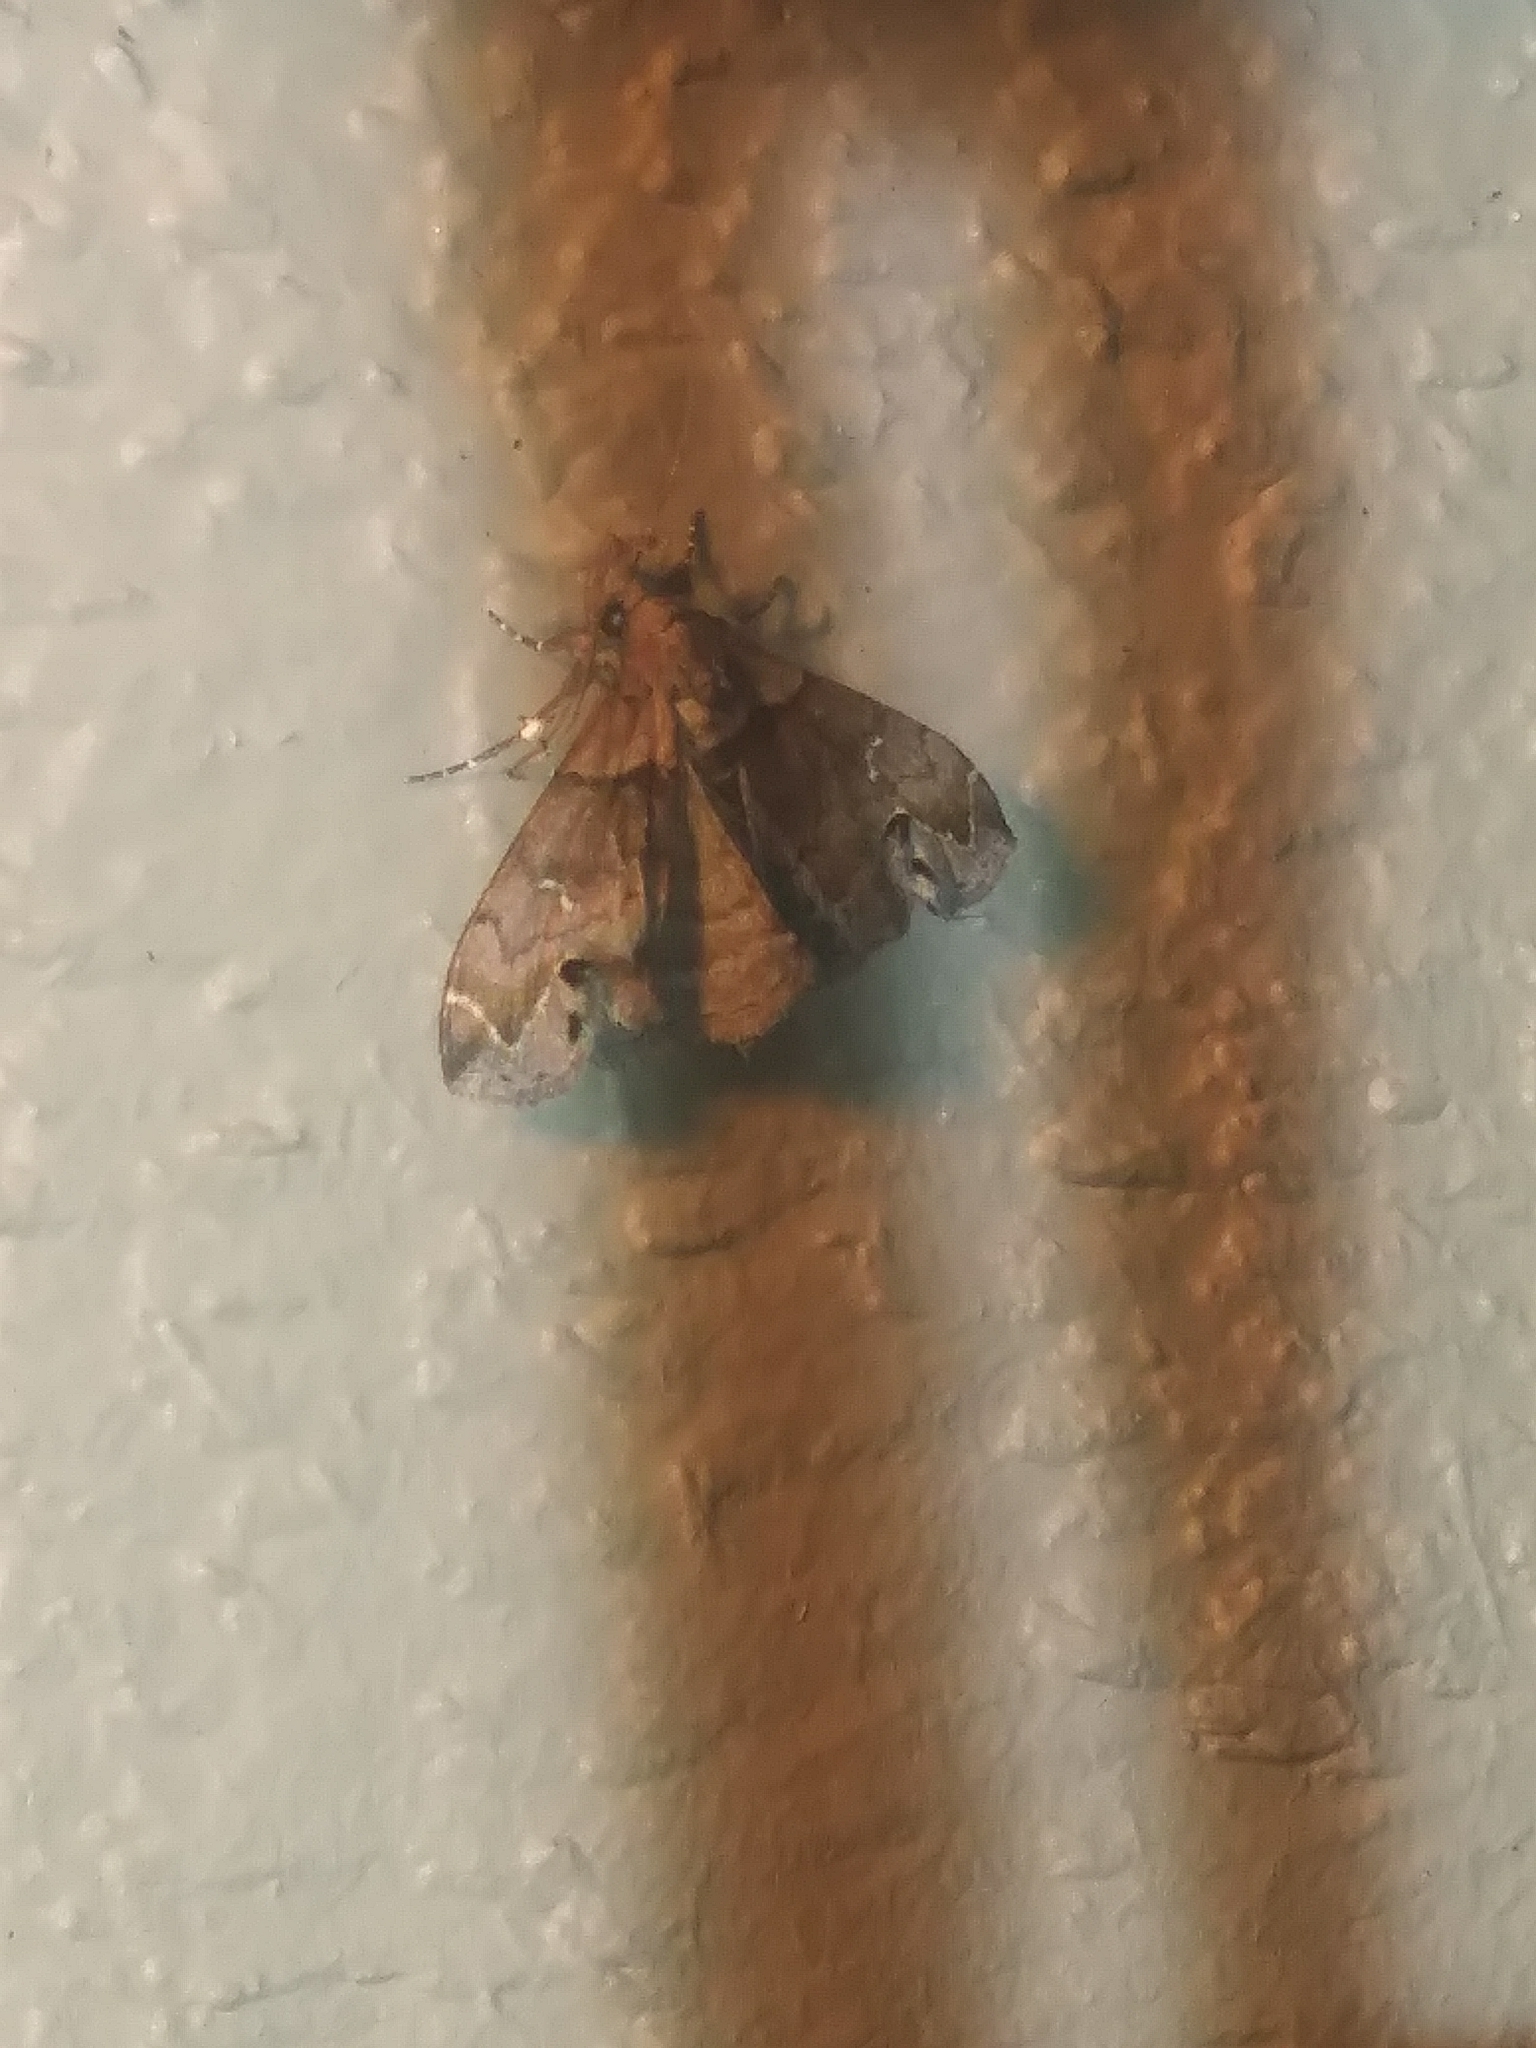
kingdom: Animalia
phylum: Arthropoda
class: Insecta
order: Lepidoptera
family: Erebidae
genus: Lascoria
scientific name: Lascoria ambigualis
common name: Ambiguous moth
